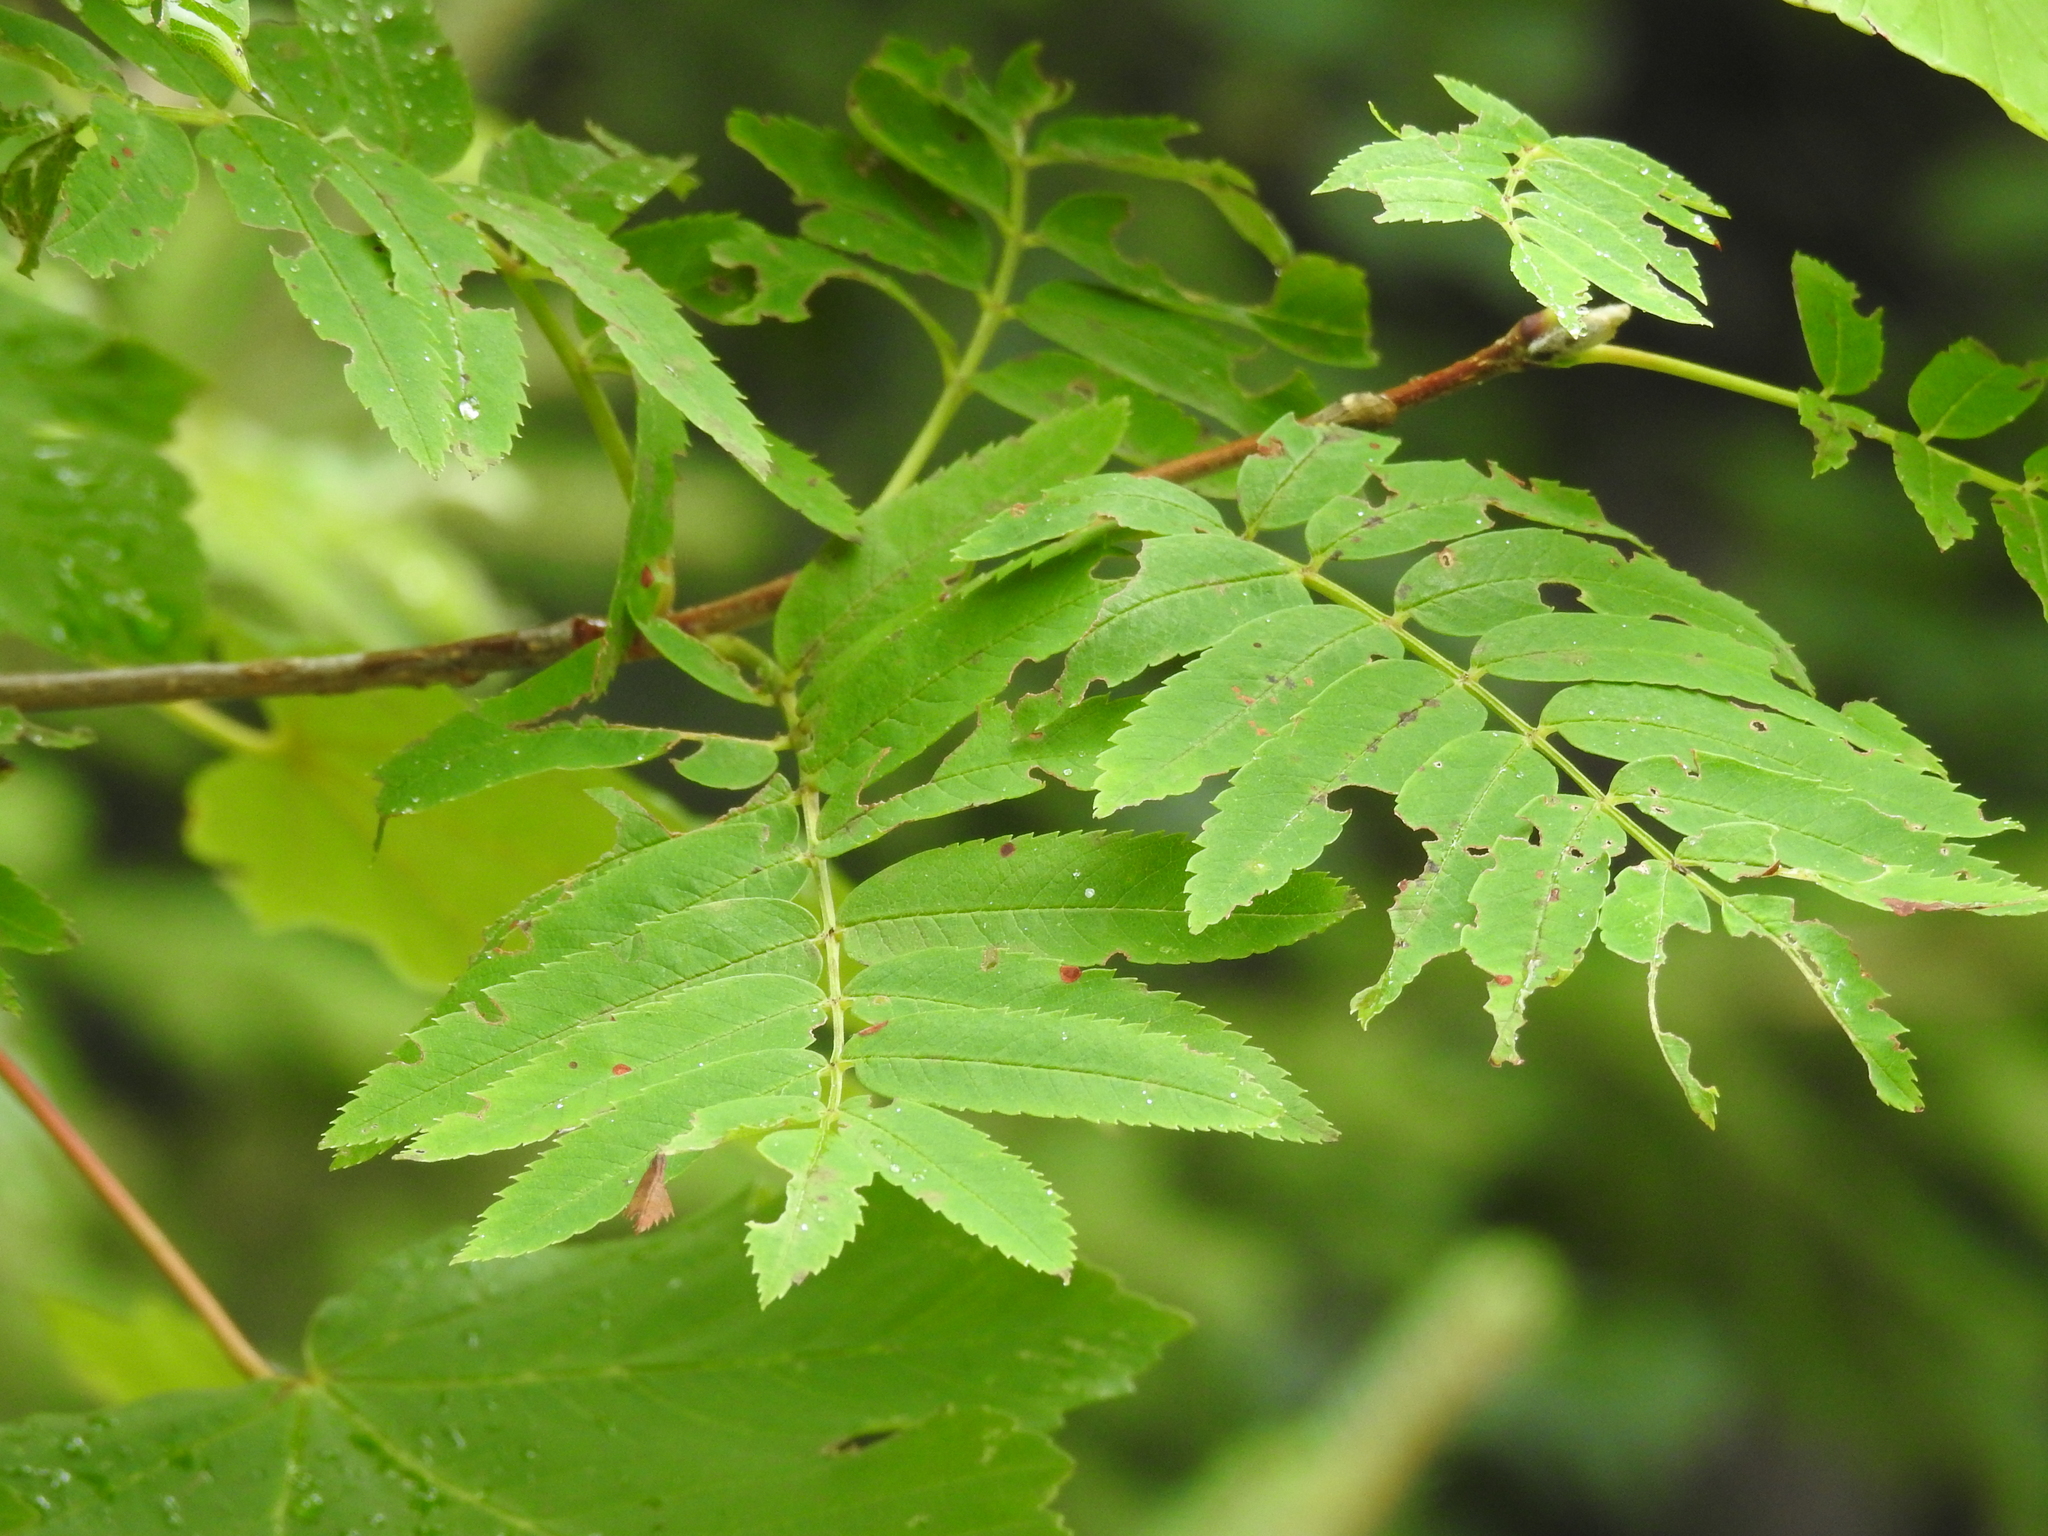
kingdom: Plantae
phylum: Tracheophyta
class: Magnoliopsida
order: Rosales
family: Rosaceae
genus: Sorbus
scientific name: Sorbus aucuparia
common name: Rowan
